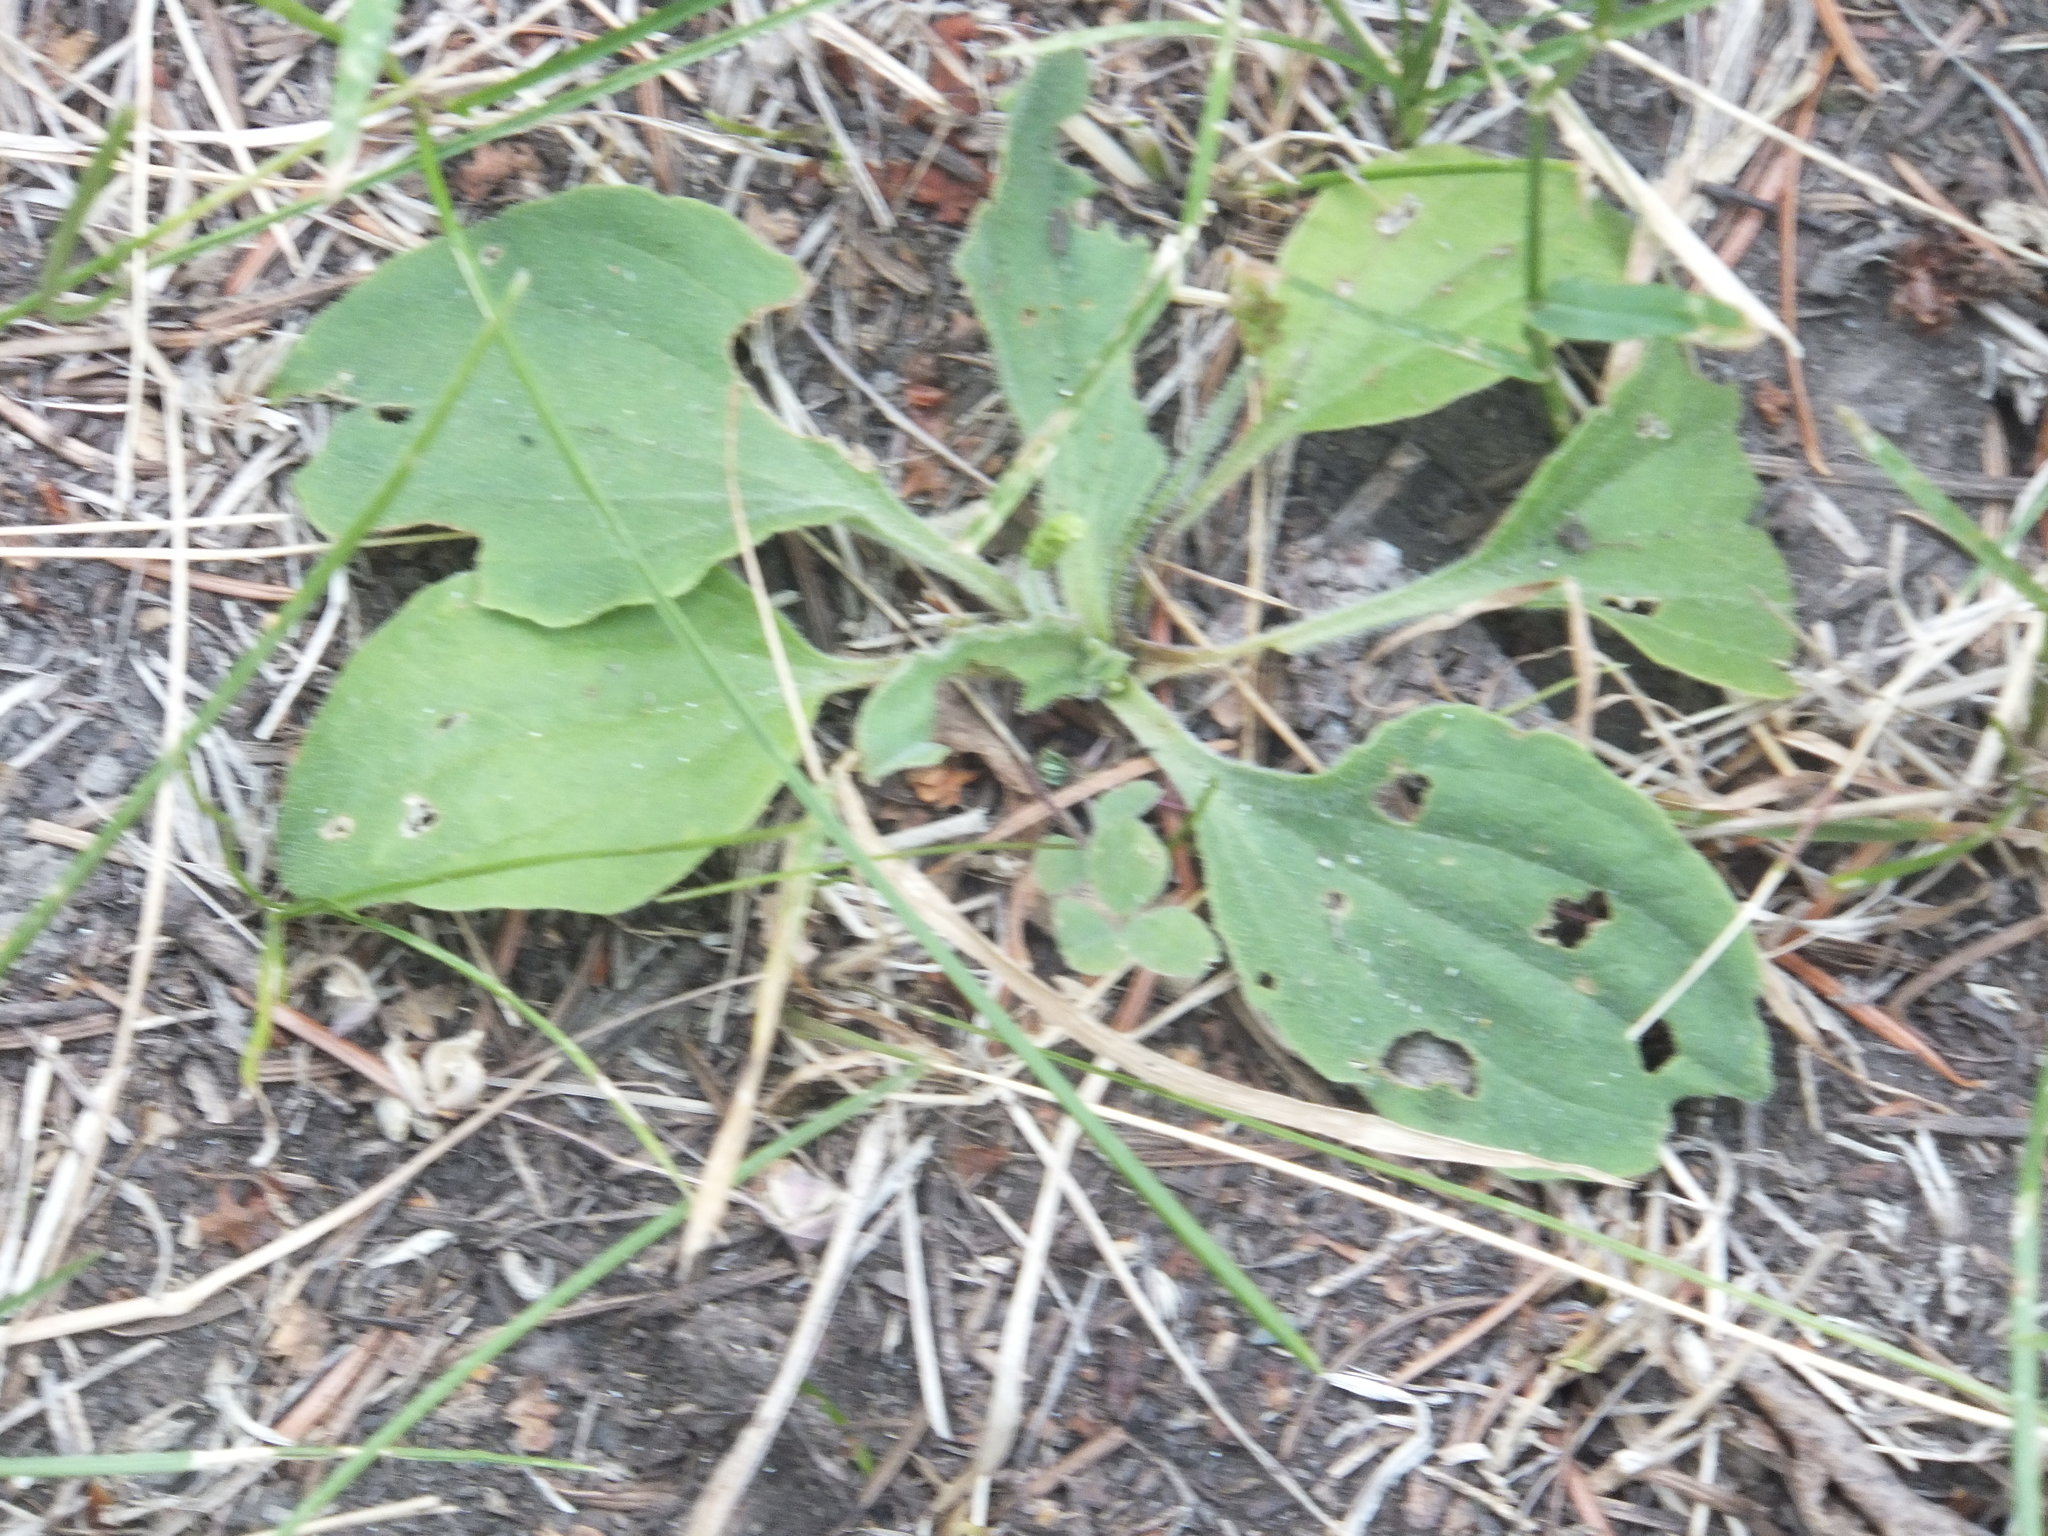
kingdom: Plantae
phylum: Tracheophyta
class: Magnoliopsida
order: Lamiales
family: Plantaginaceae
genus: Plantago
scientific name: Plantago major
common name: Common plantain
